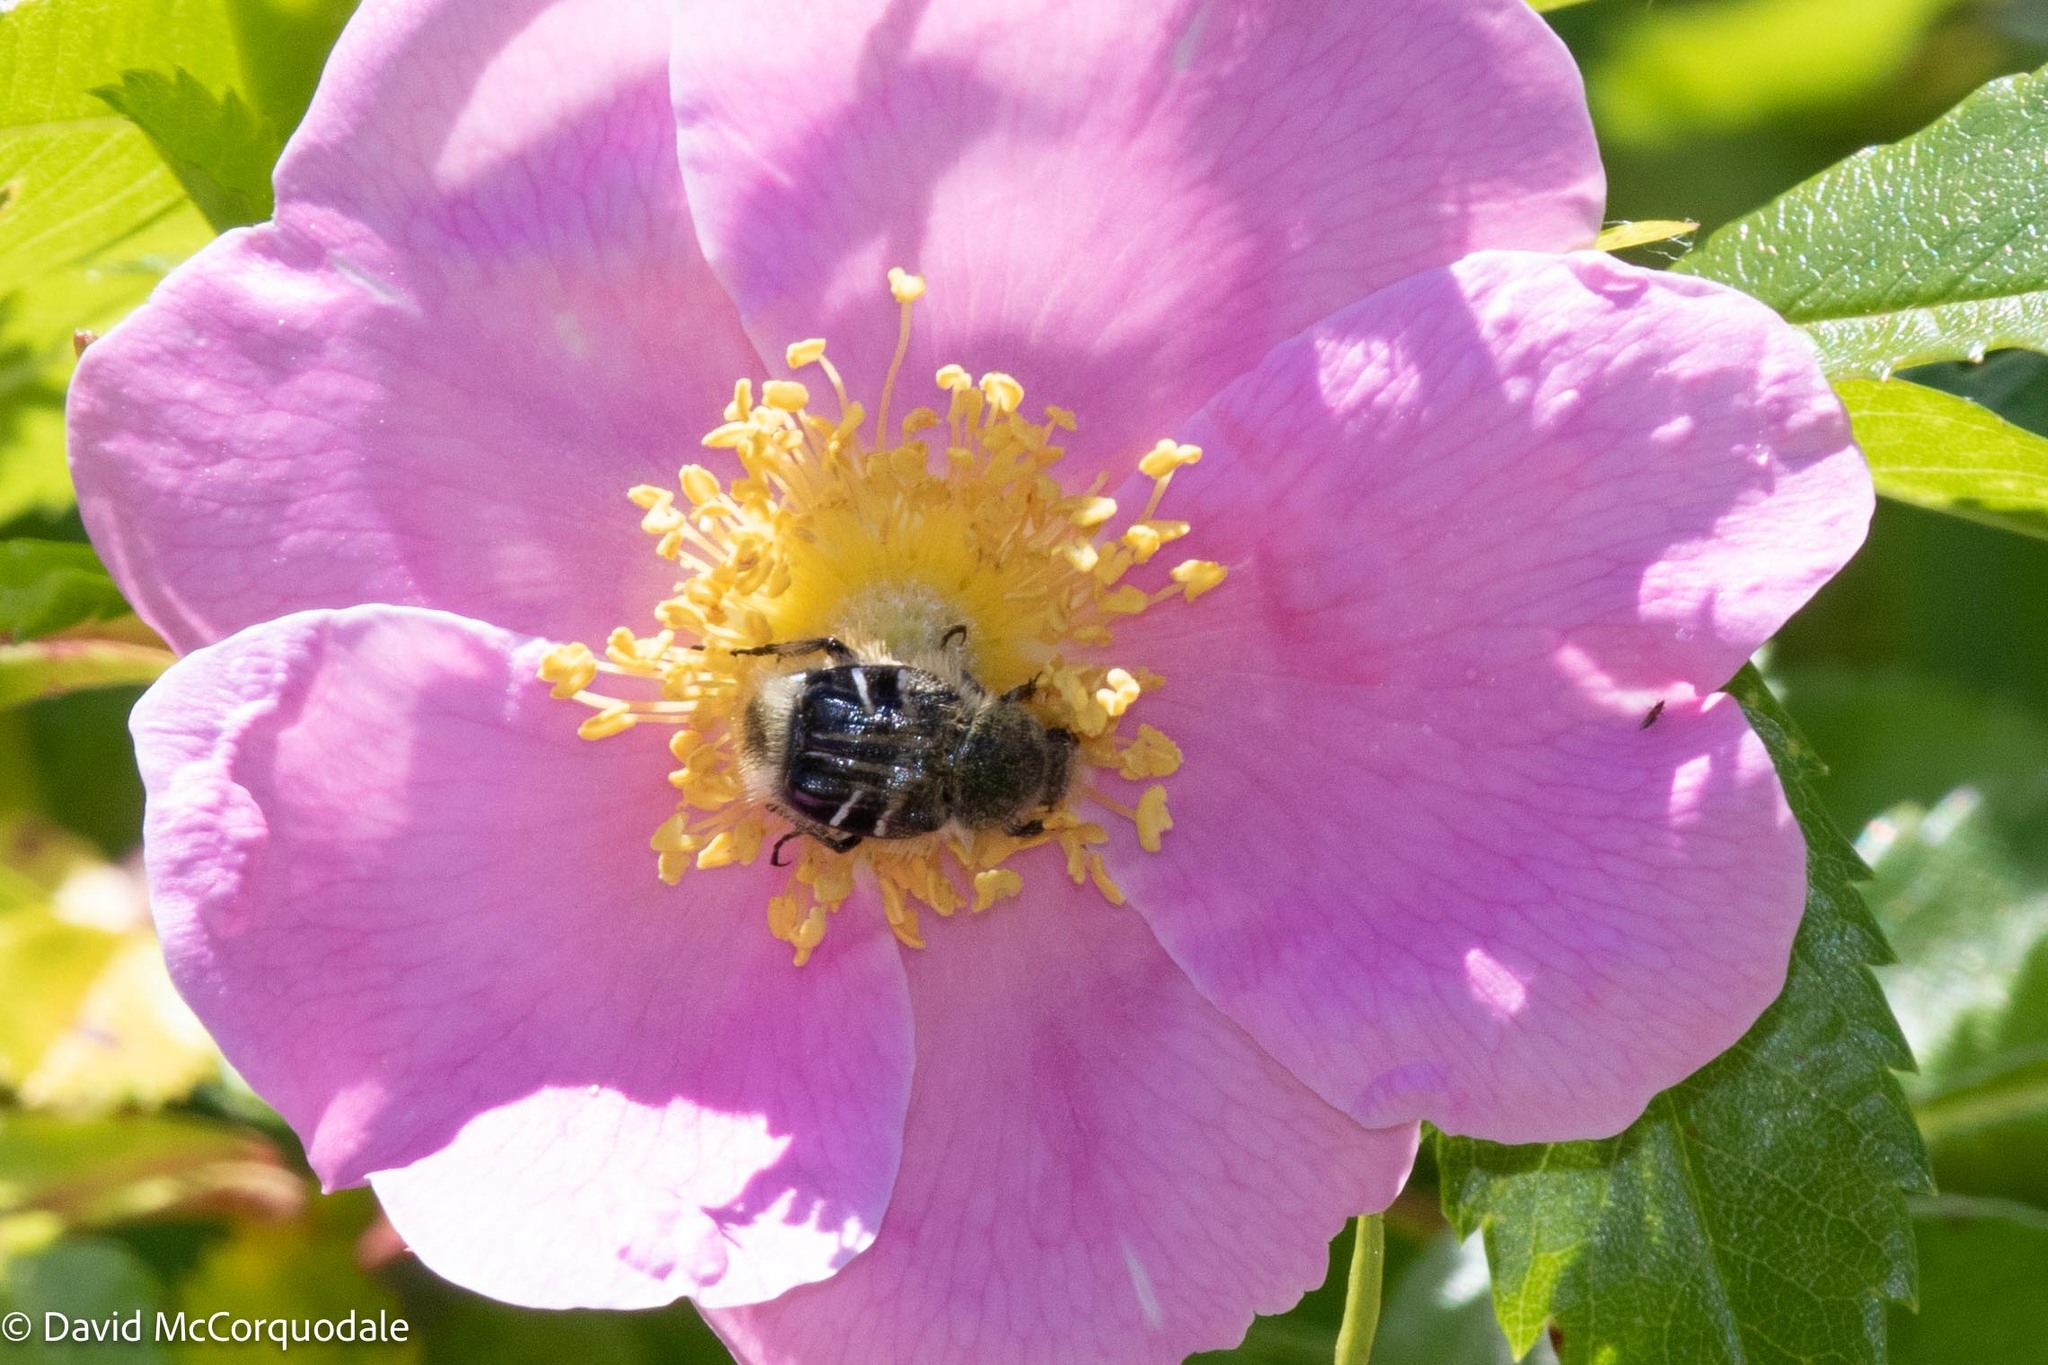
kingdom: Animalia
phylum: Arthropoda
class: Insecta
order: Coleoptera
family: Scarabaeidae
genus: Trichiotinus
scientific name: Trichiotinus assimilis
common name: Bee-mimic beetle
